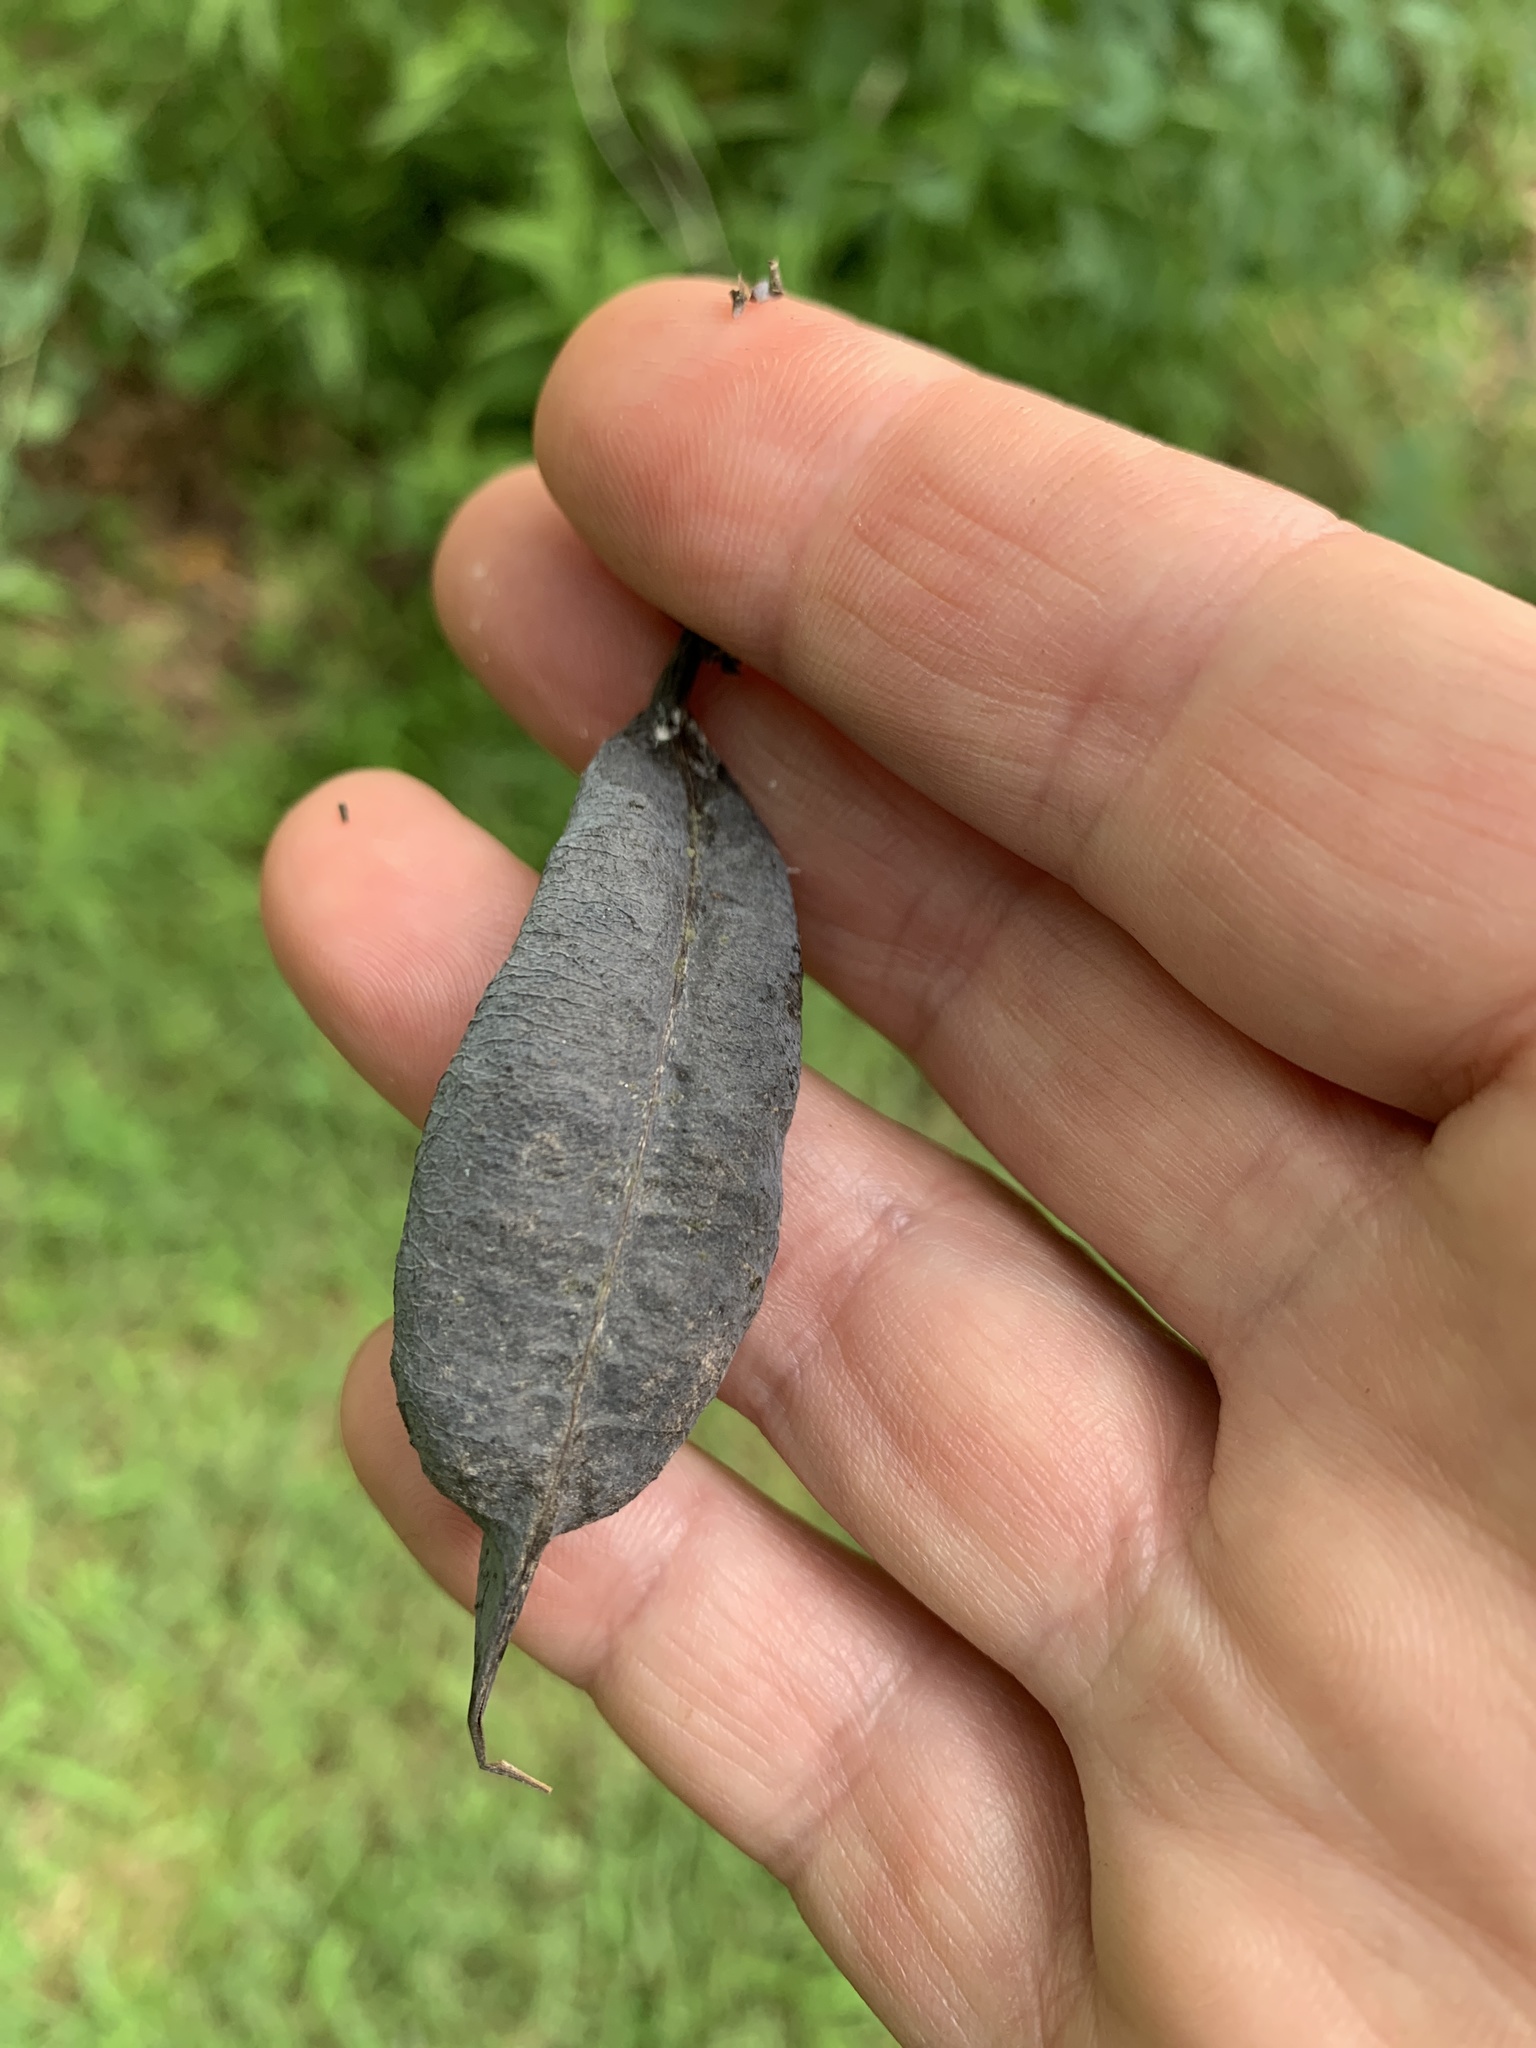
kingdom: Plantae
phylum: Tracheophyta
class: Magnoliopsida
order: Fabales
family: Fabaceae
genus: Baptisia
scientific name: Baptisia australis
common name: Blue false indigo
